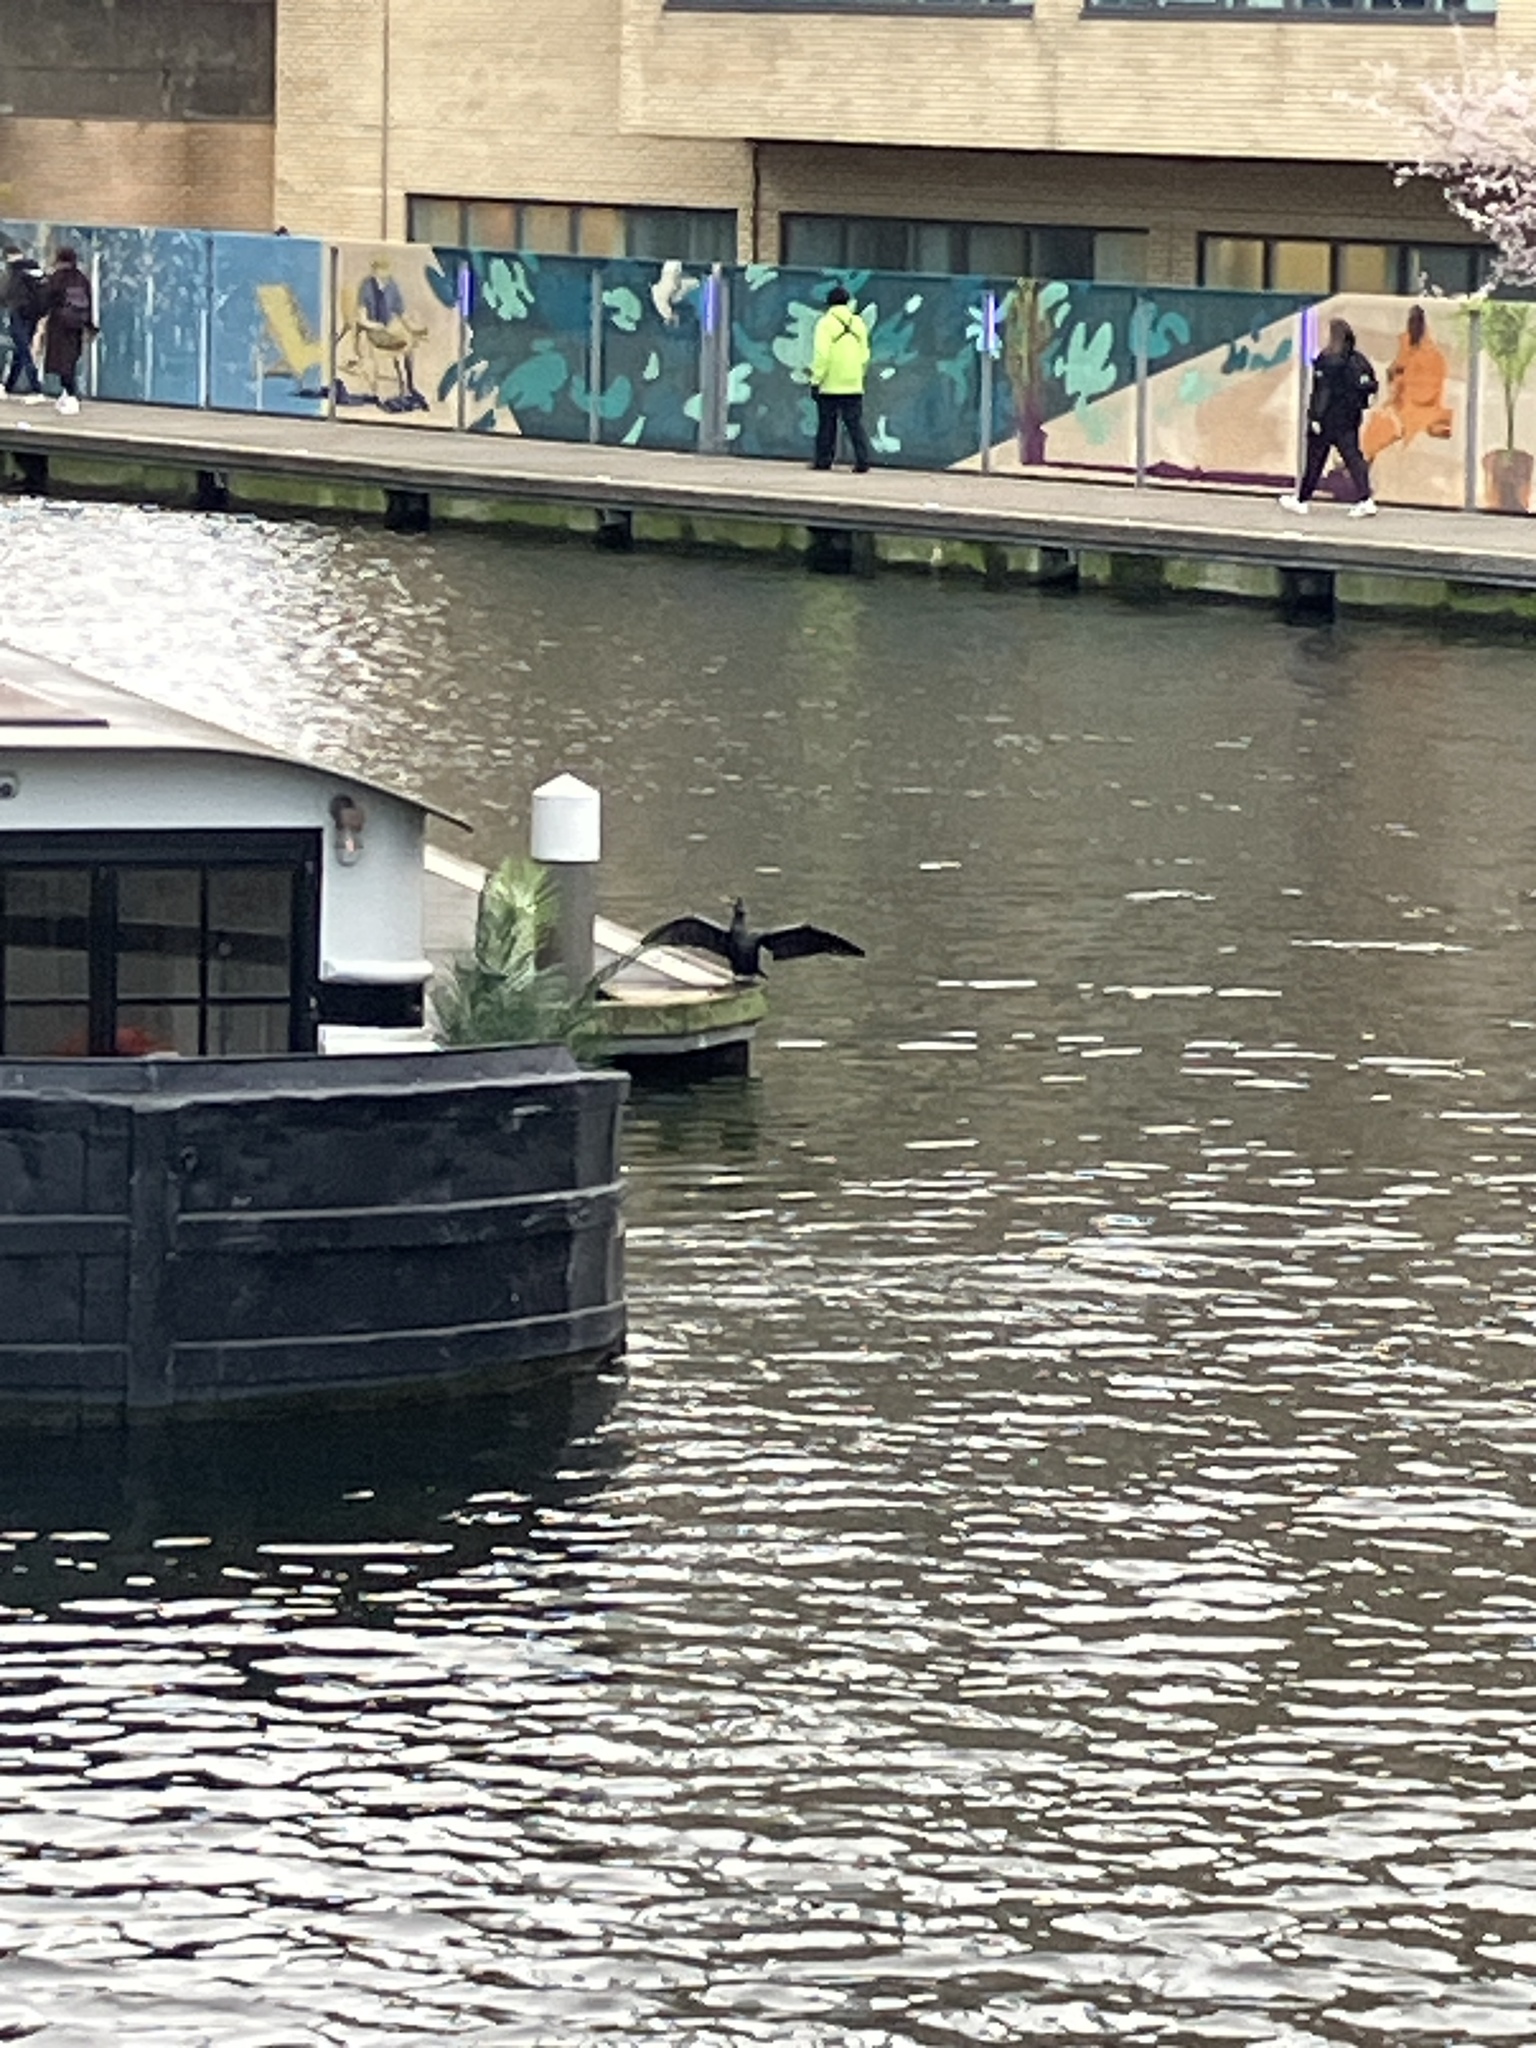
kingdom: Animalia
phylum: Chordata
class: Aves
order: Suliformes
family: Phalacrocoracidae
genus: Phalacrocorax
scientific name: Phalacrocorax carbo
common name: Great cormorant
